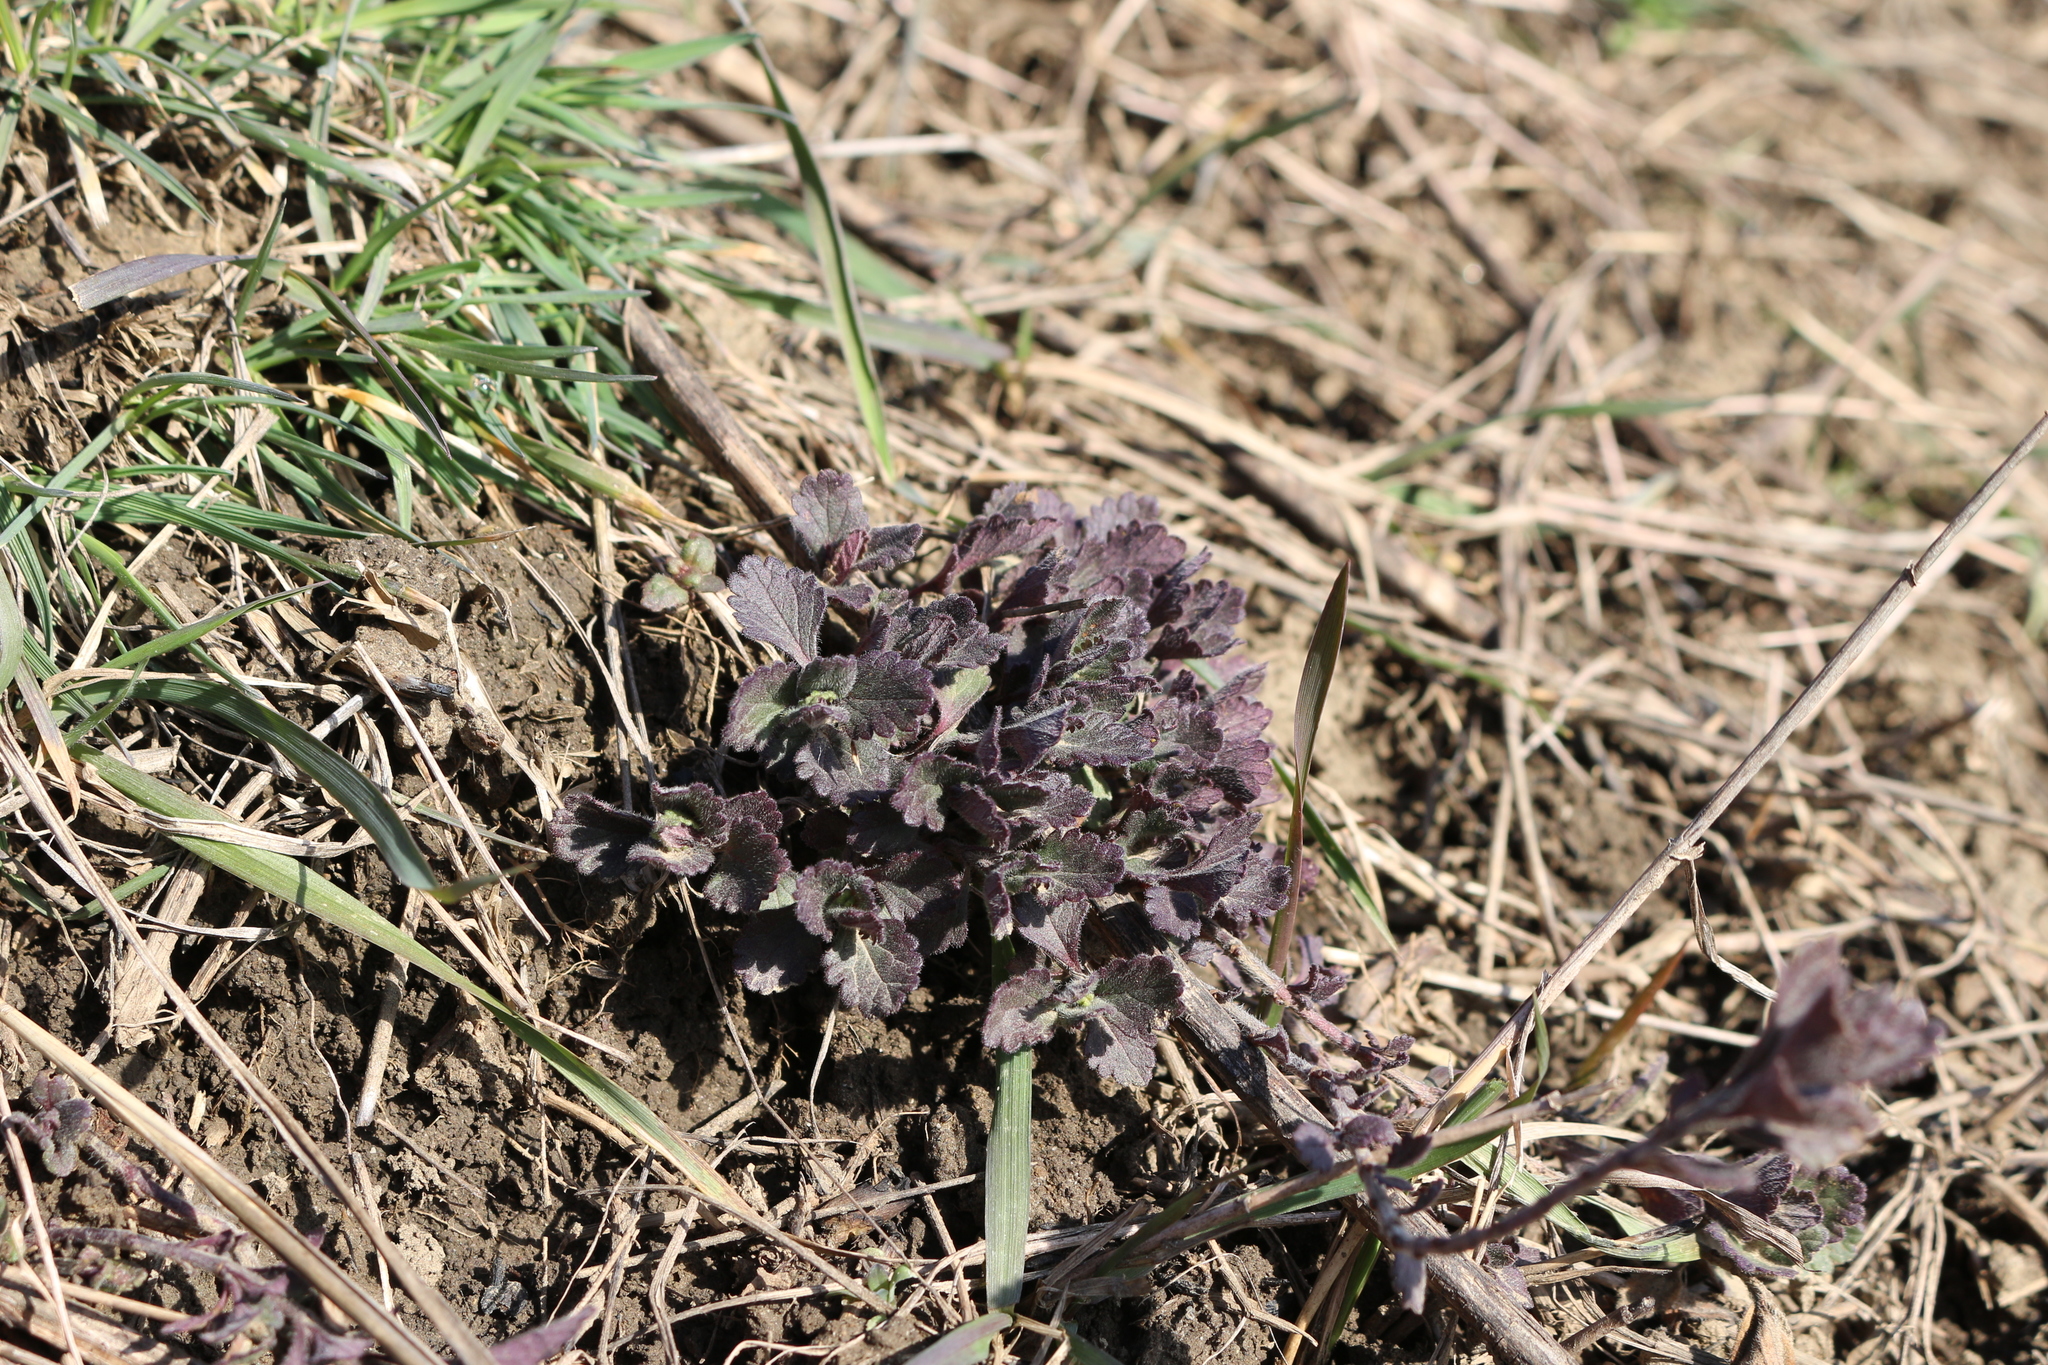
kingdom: Plantae
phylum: Tracheophyta
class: Magnoliopsida
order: Lamiales
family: Lamiaceae
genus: Teucrium
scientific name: Teucrium chamaedrys
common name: Wall germander
